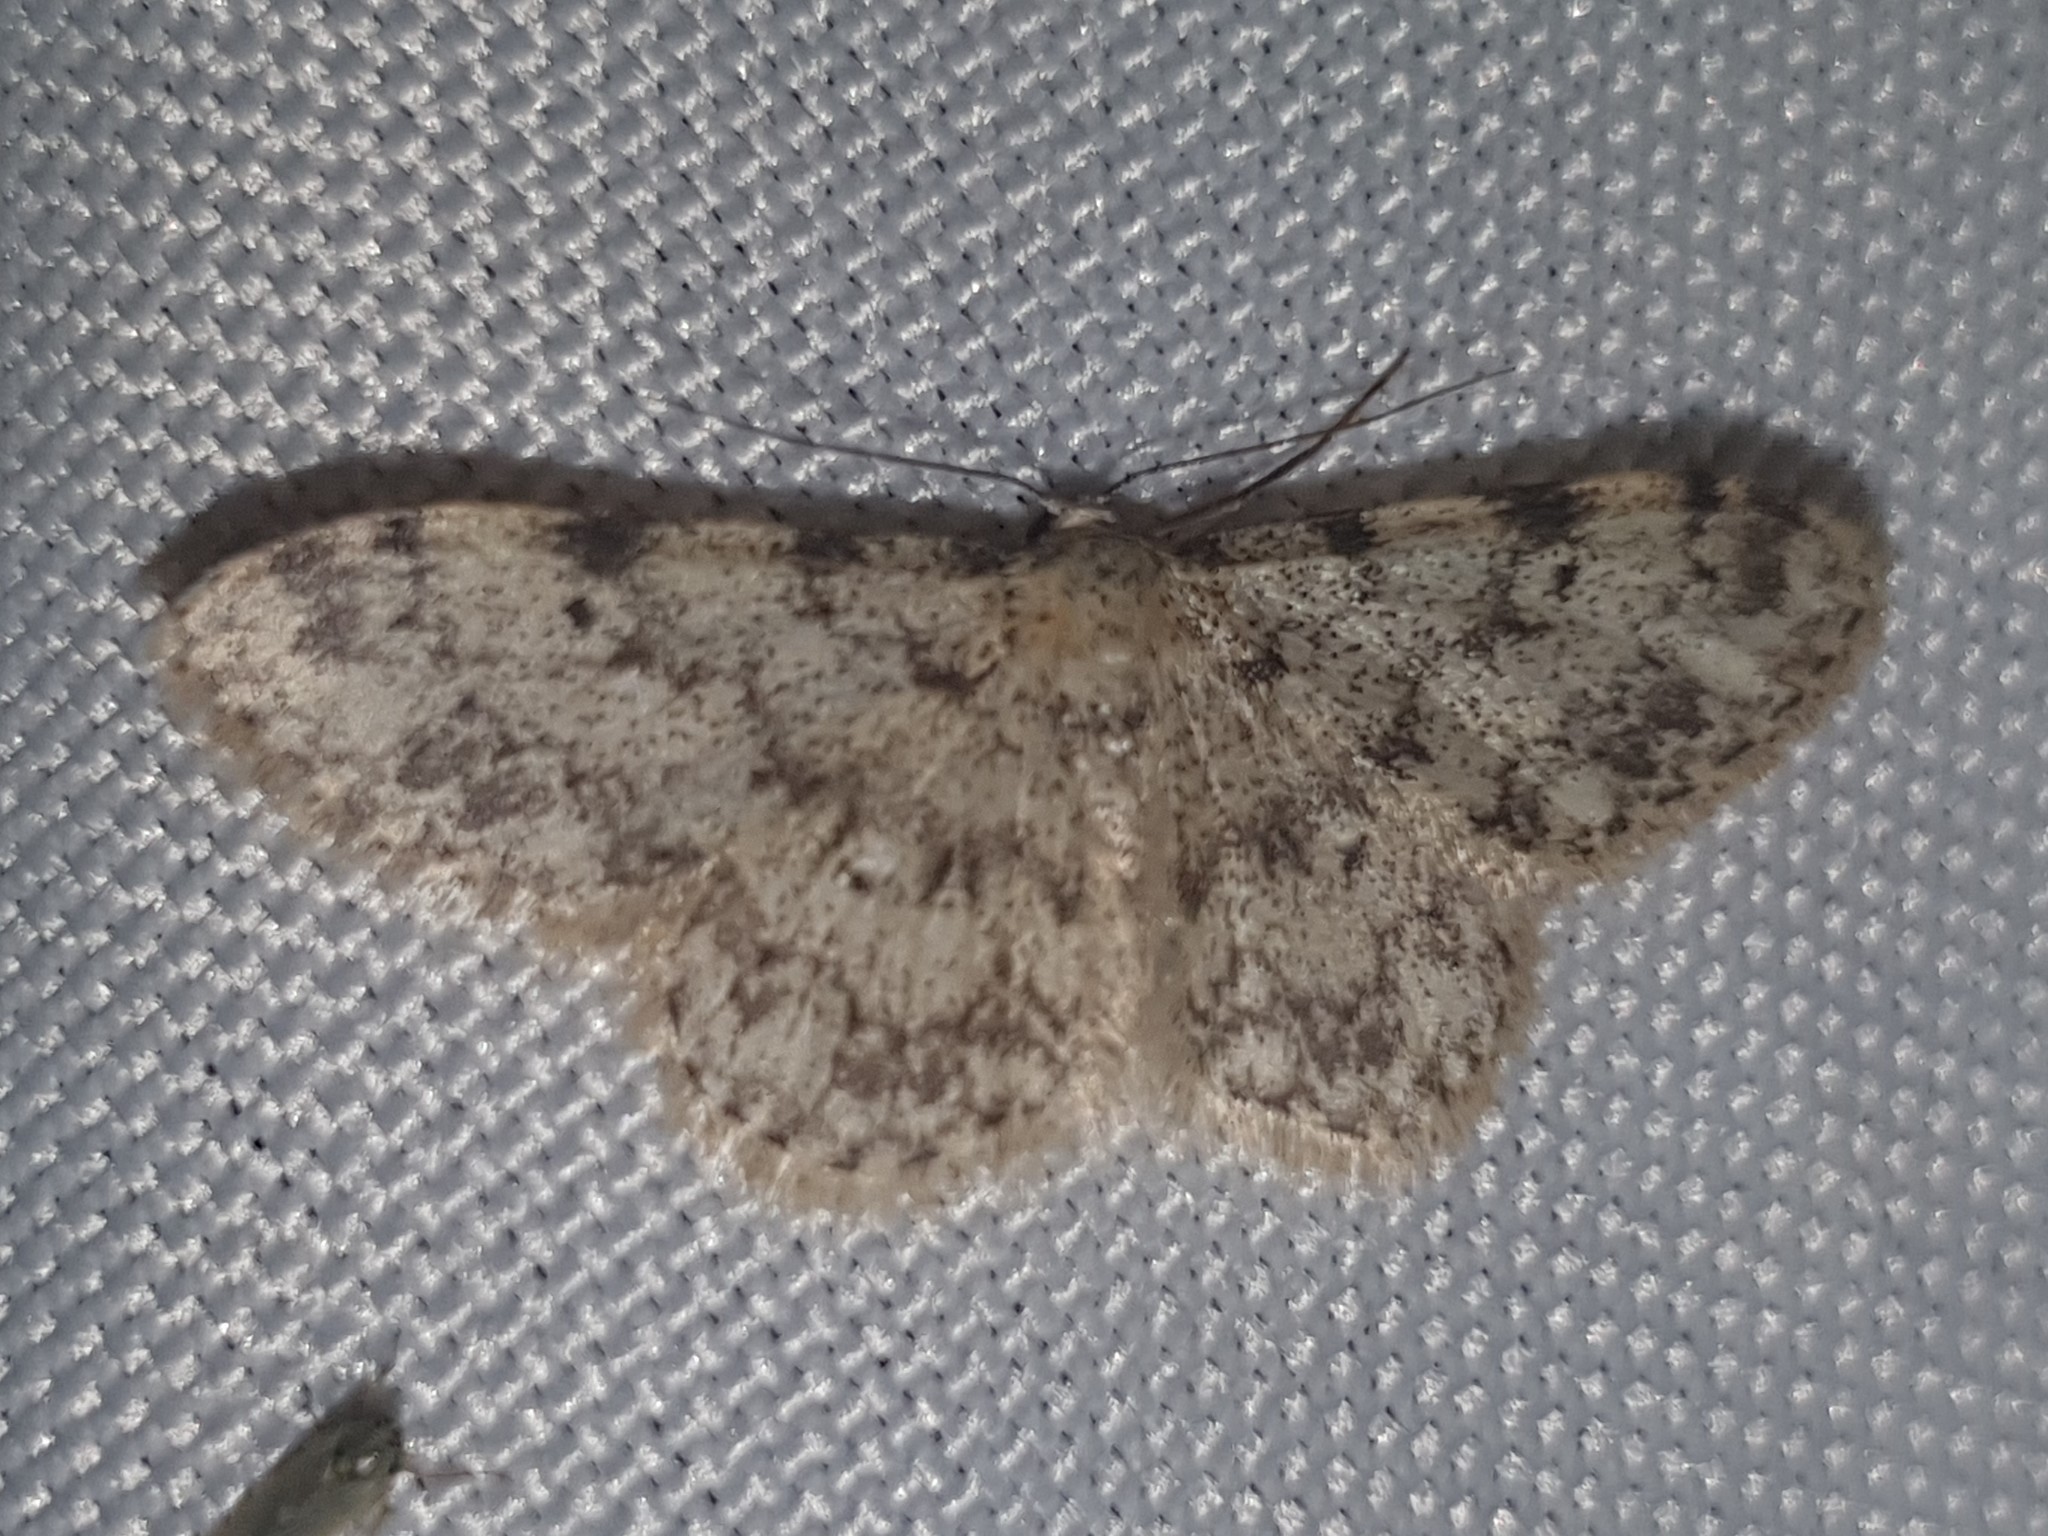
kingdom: Animalia
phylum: Arthropoda
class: Insecta
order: Lepidoptera
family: Geometridae
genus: Idaea
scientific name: Idaea contiguaria
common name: Weaver's wave
